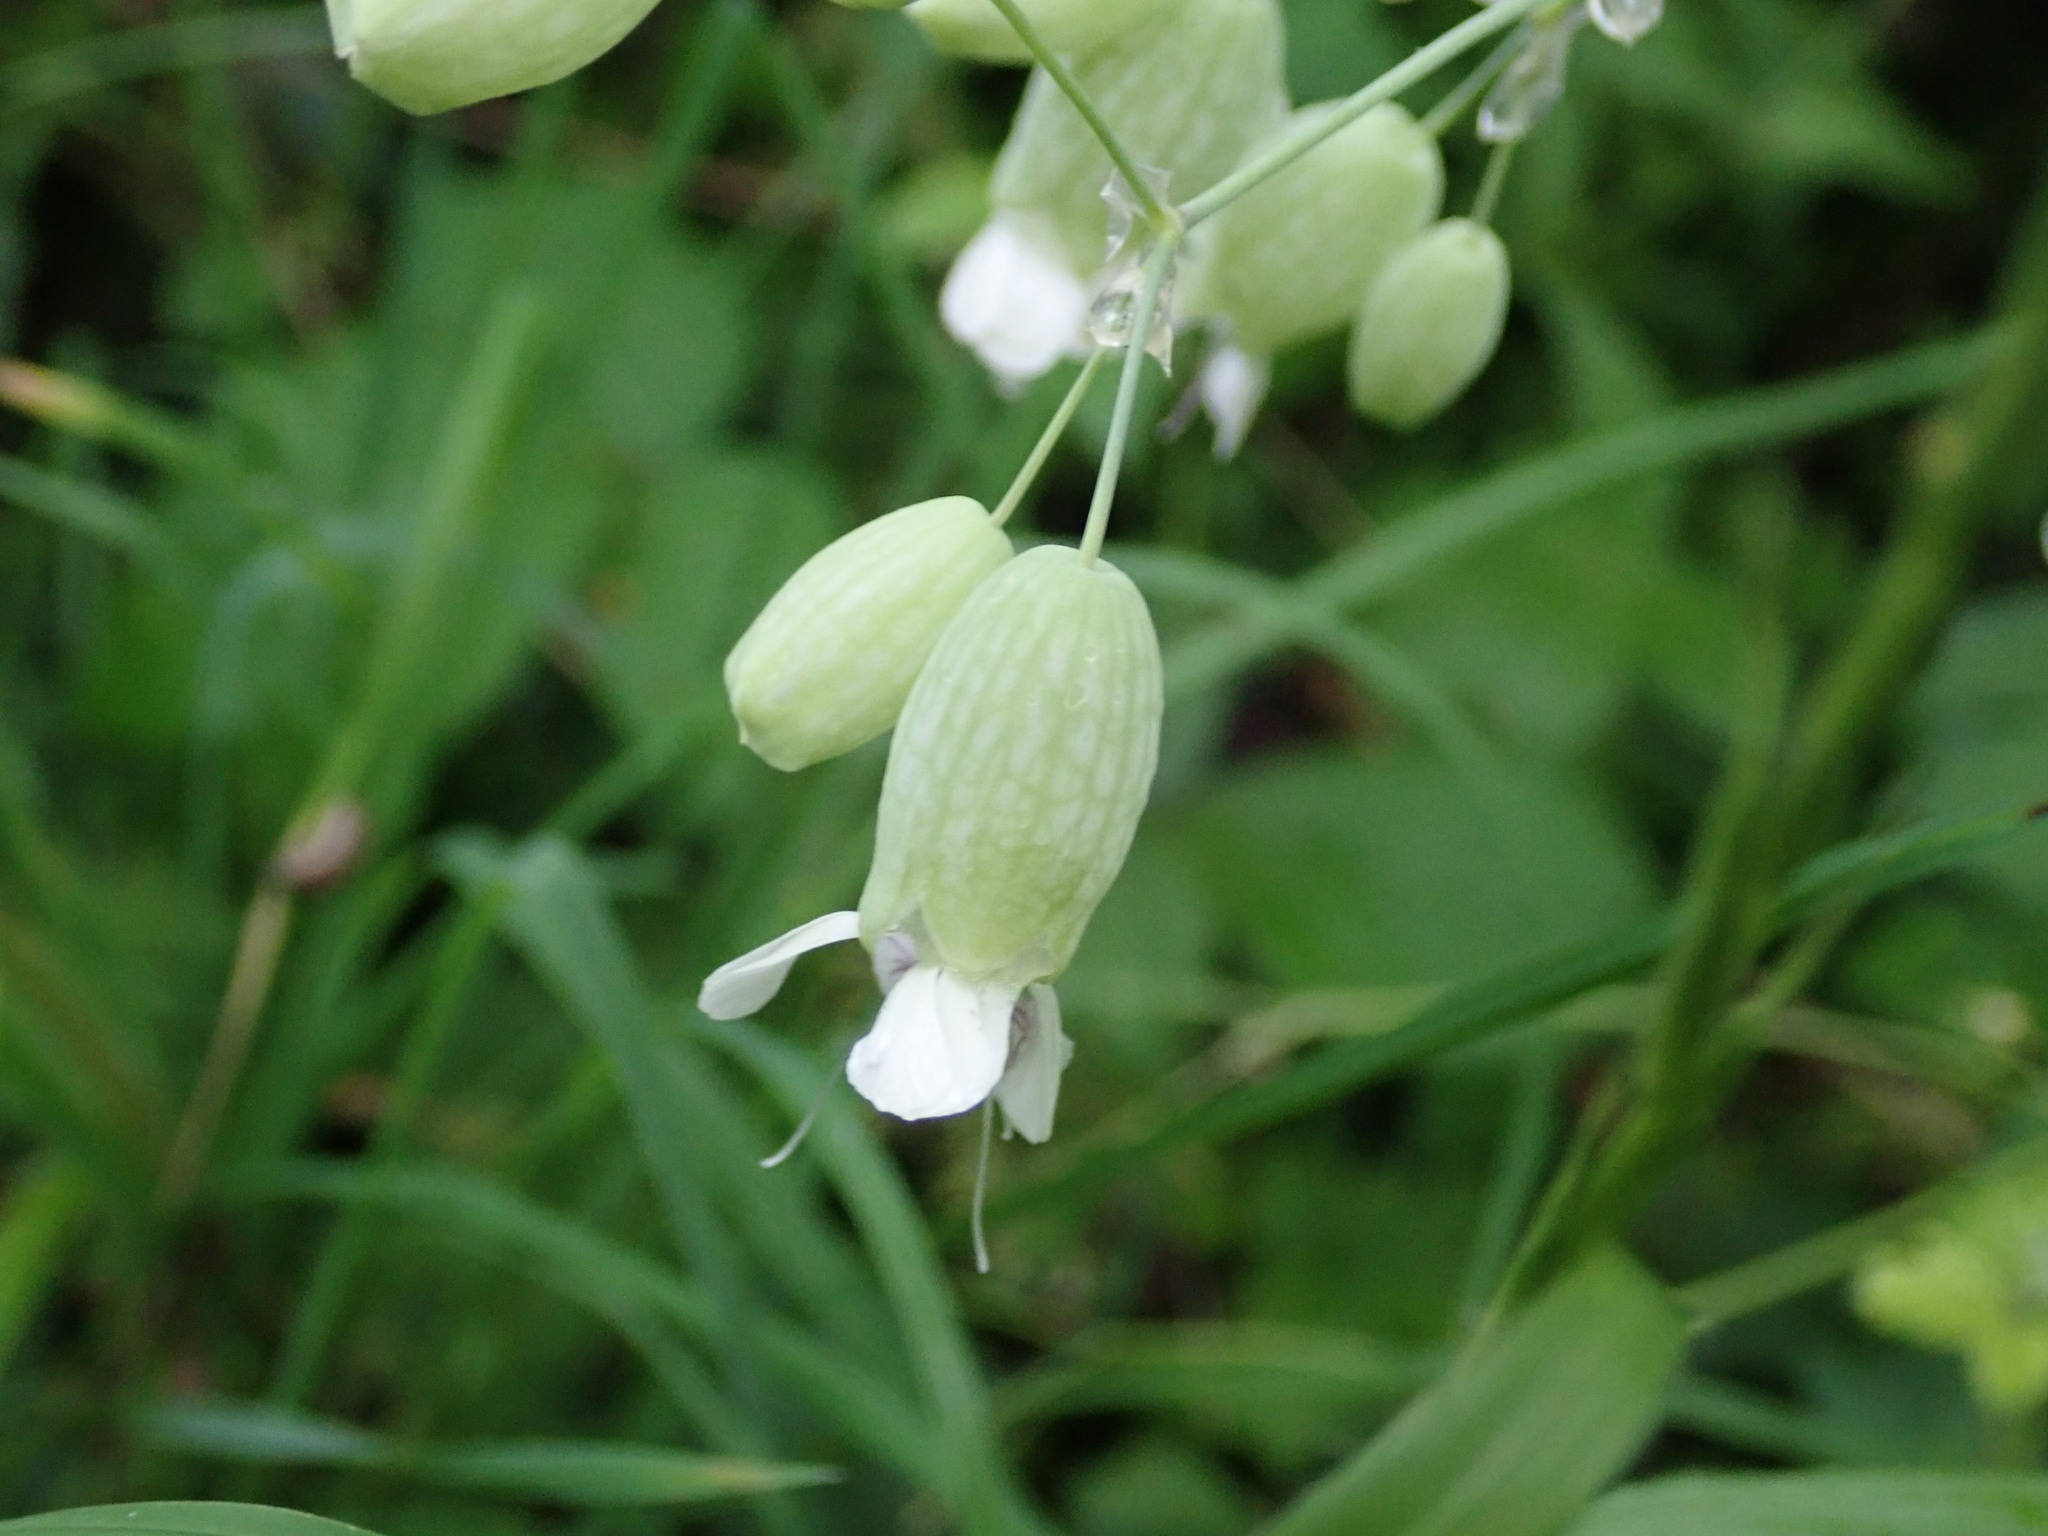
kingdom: Plantae
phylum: Tracheophyta
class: Magnoliopsida
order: Caryophyllales
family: Caryophyllaceae
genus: Silene
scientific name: Silene vulgaris
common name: Bladder campion
